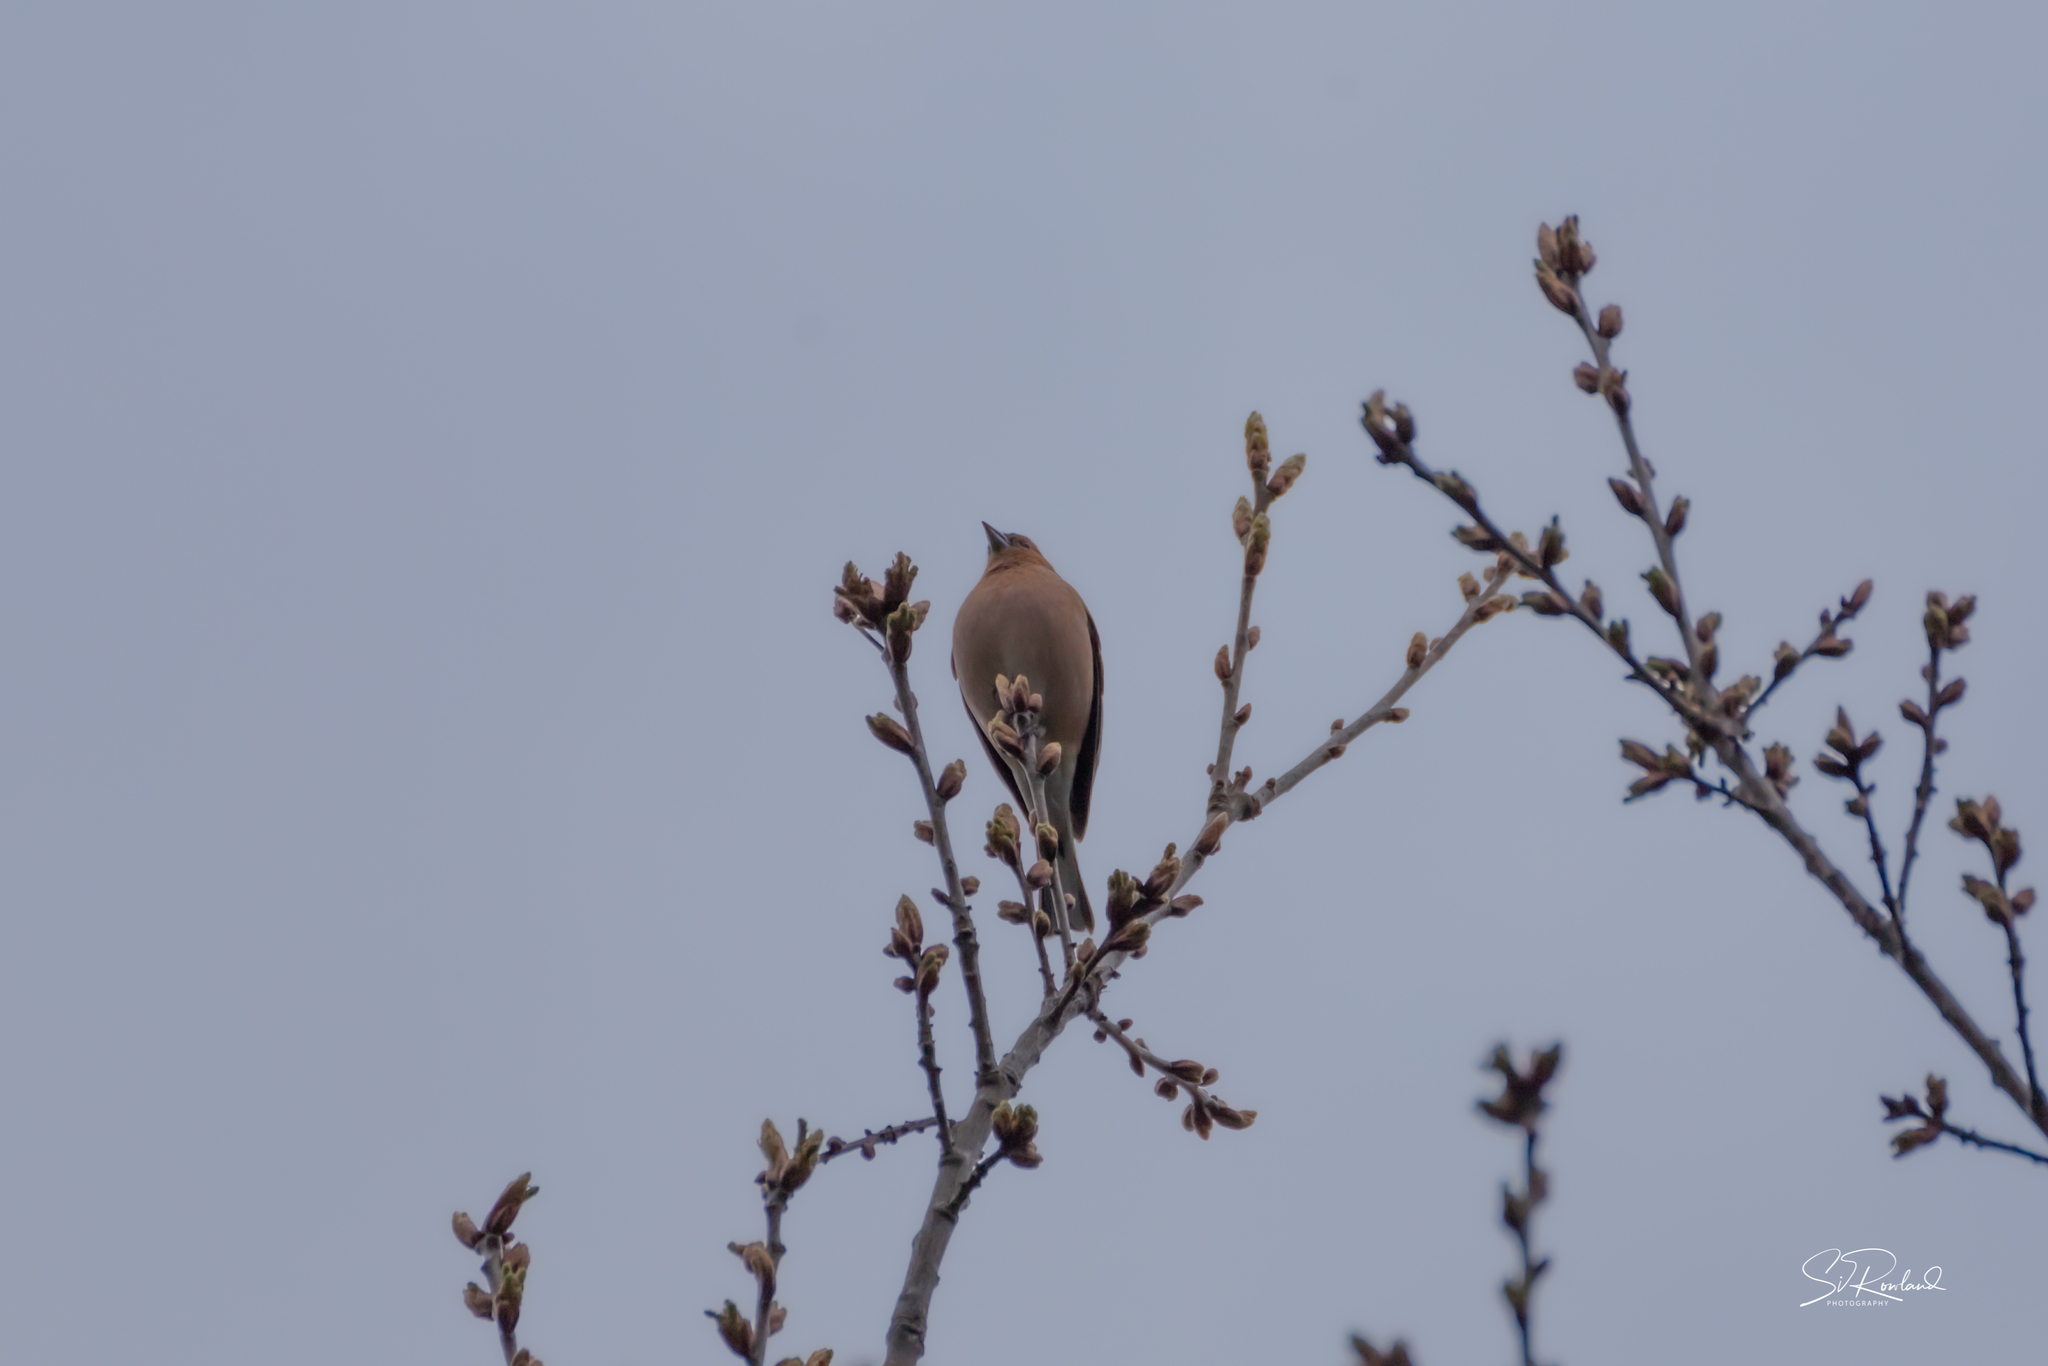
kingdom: Animalia
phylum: Chordata
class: Aves
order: Passeriformes
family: Fringillidae
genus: Fringilla
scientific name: Fringilla coelebs
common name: Common chaffinch
